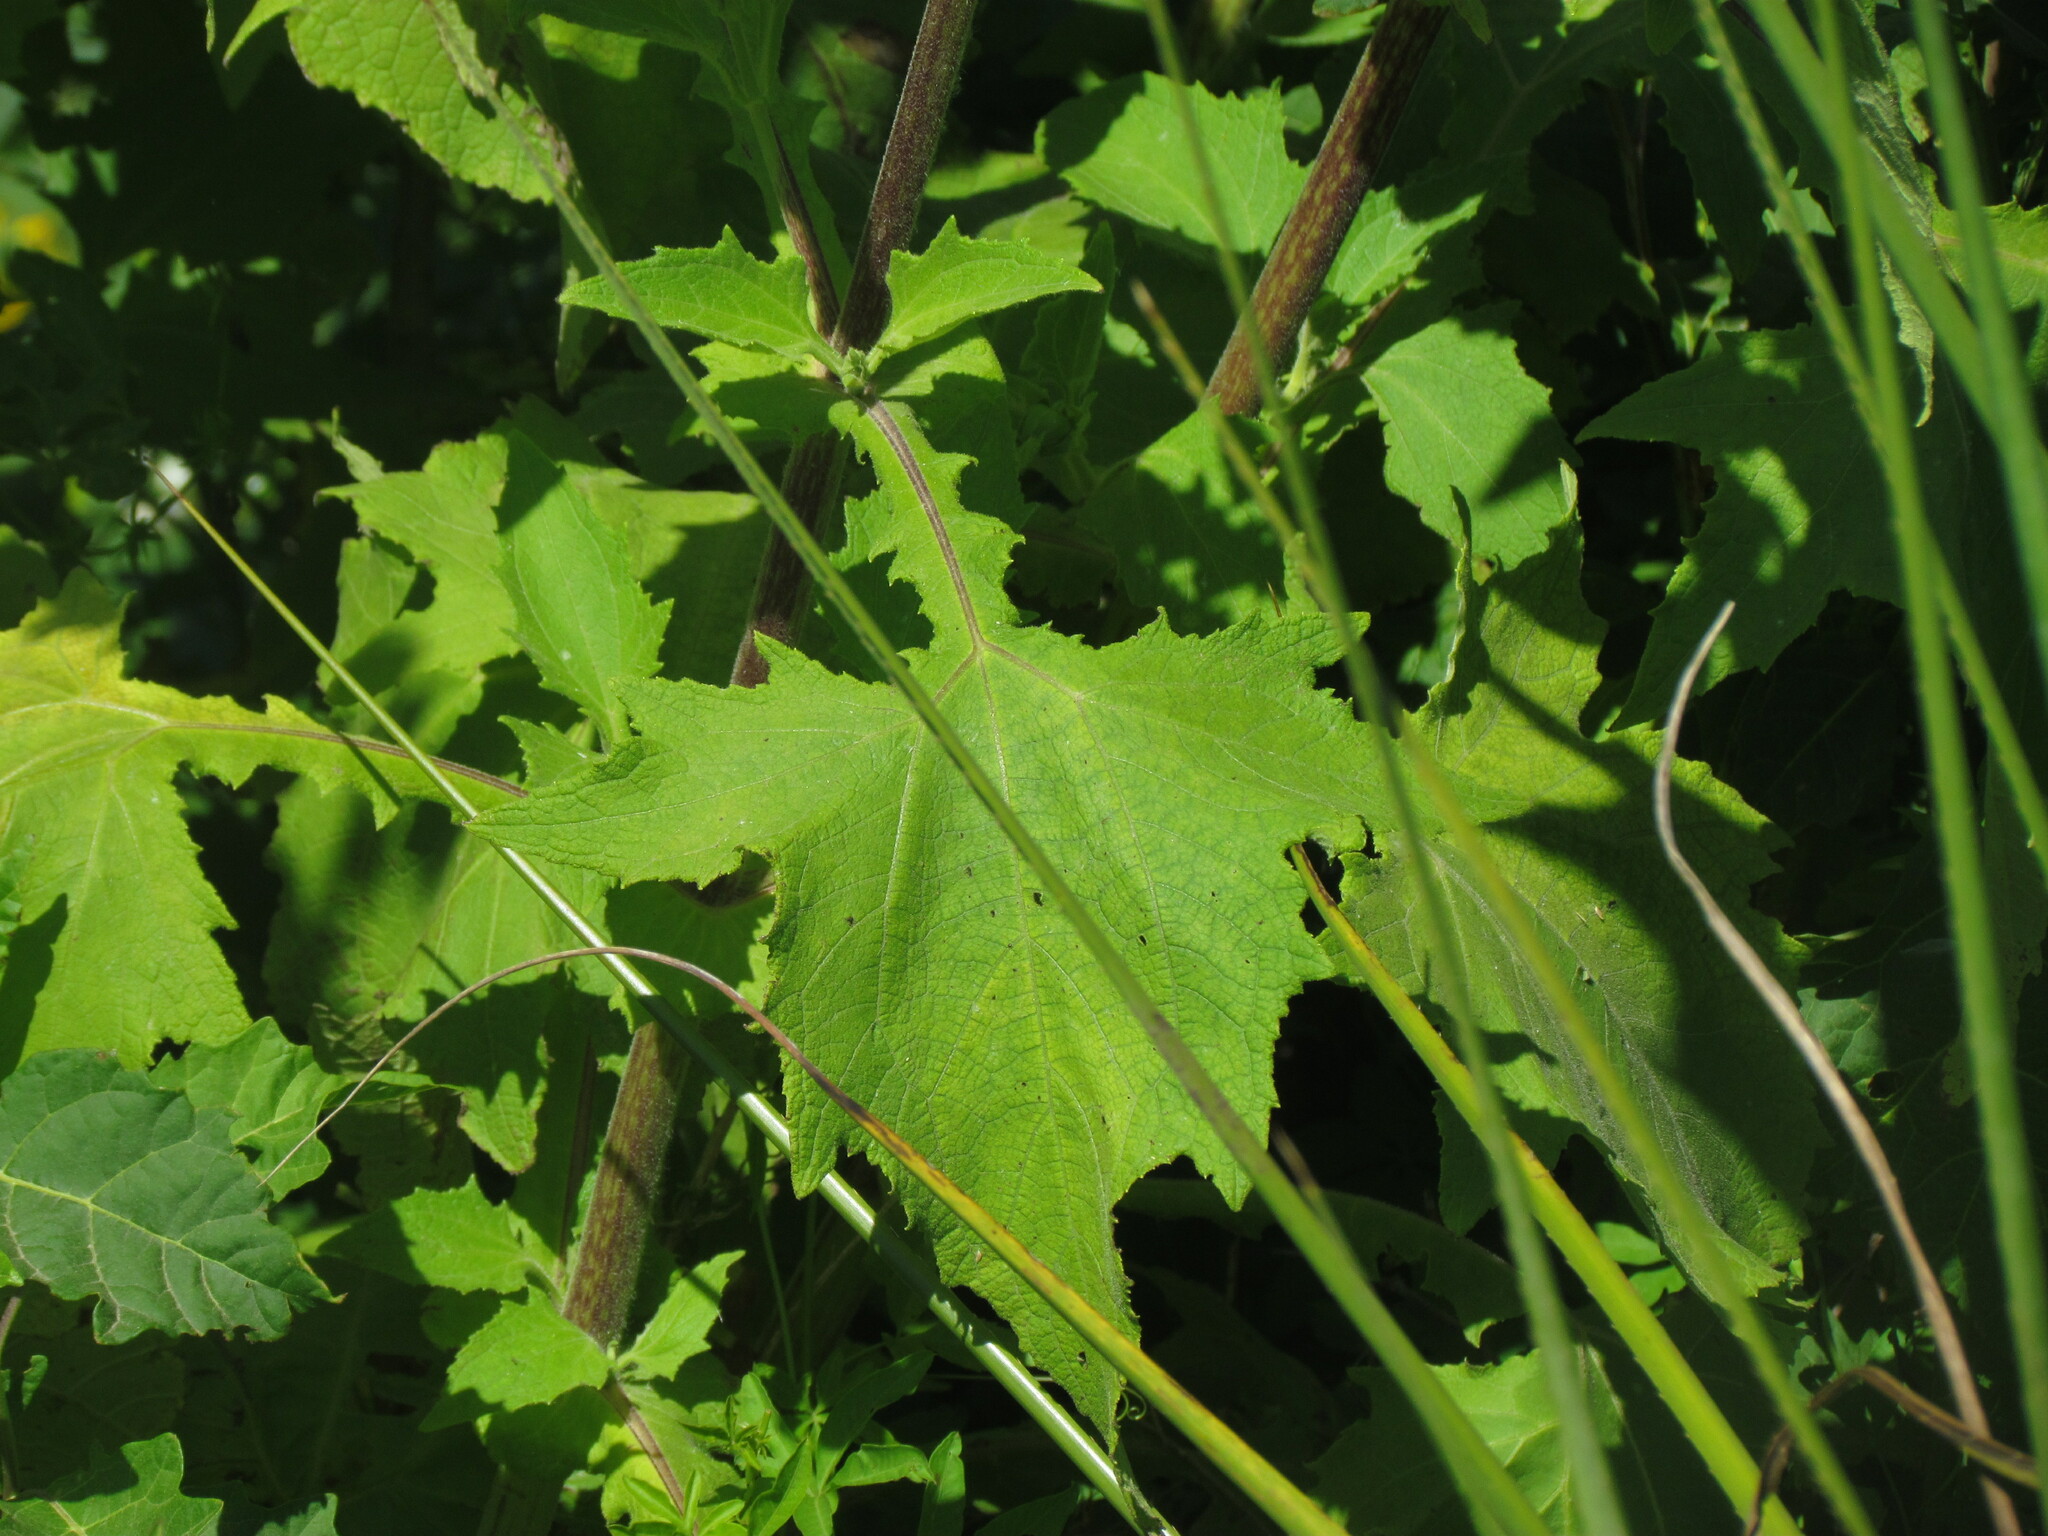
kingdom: Plantae
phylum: Tracheophyta
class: Magnoliopsida
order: Asterales
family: Asteraceae
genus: Smallanthus
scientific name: Smallanthus connatus
